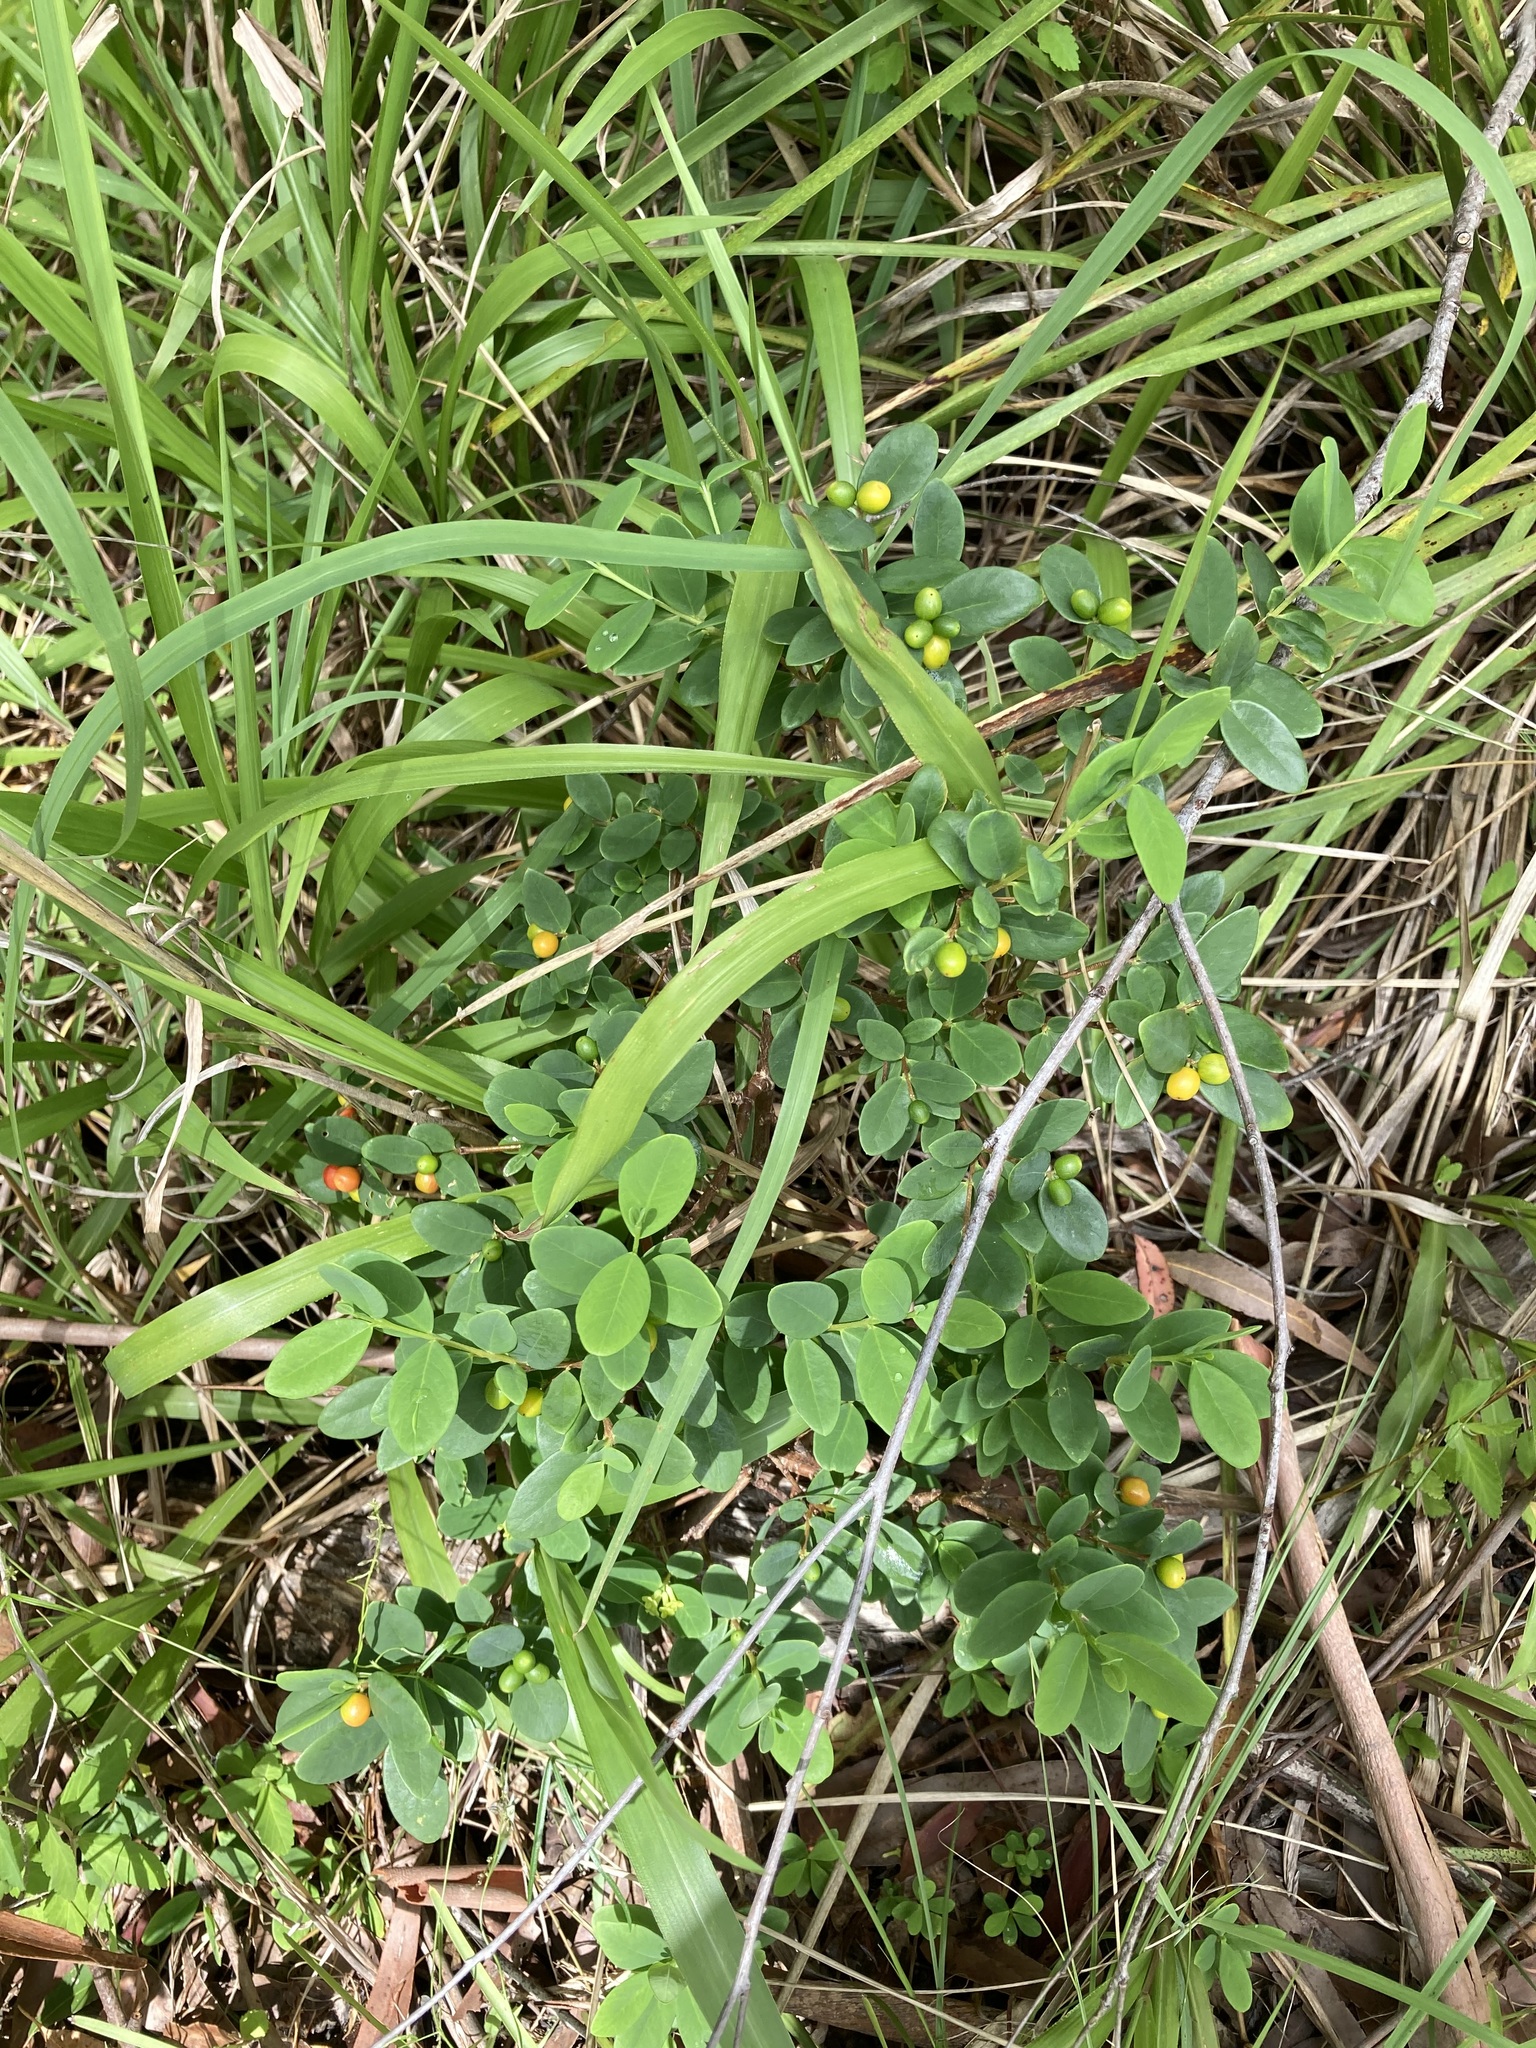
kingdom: Plantae
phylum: Tracheophyta
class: Magnoliopsida
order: Malvales
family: Thymelaeaceae
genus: Wikstroemia
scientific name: Wikstroemia indica
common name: Tiebush
